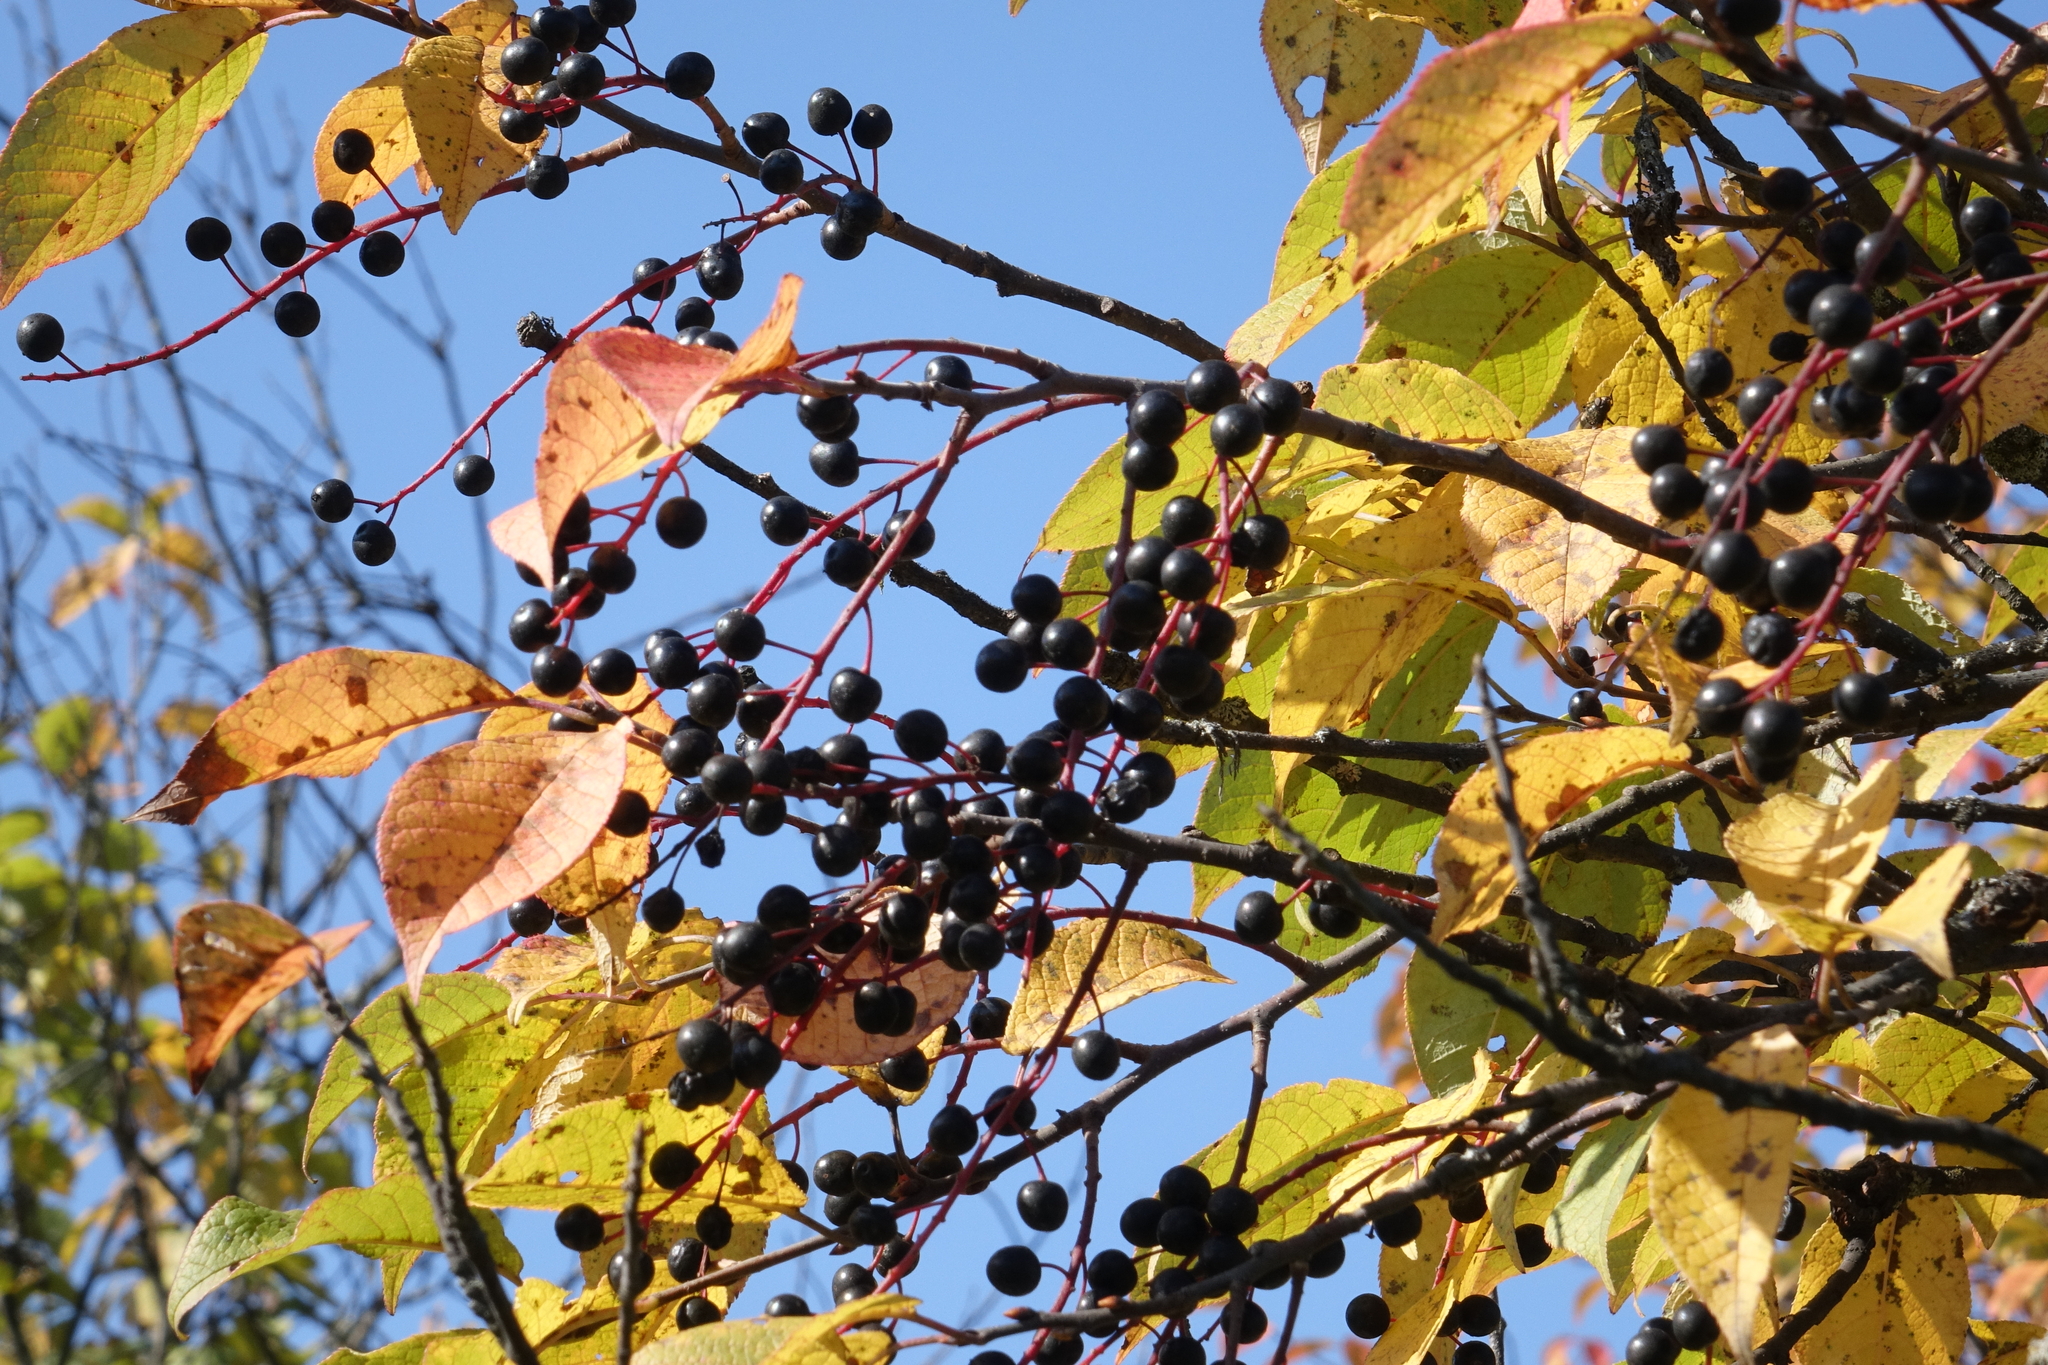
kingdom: Plantae
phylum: Tracheophyta
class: Magnoliopsida
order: Rosales
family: Rosaceae
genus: Prunus
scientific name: Prunus padus
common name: Bird cherry
